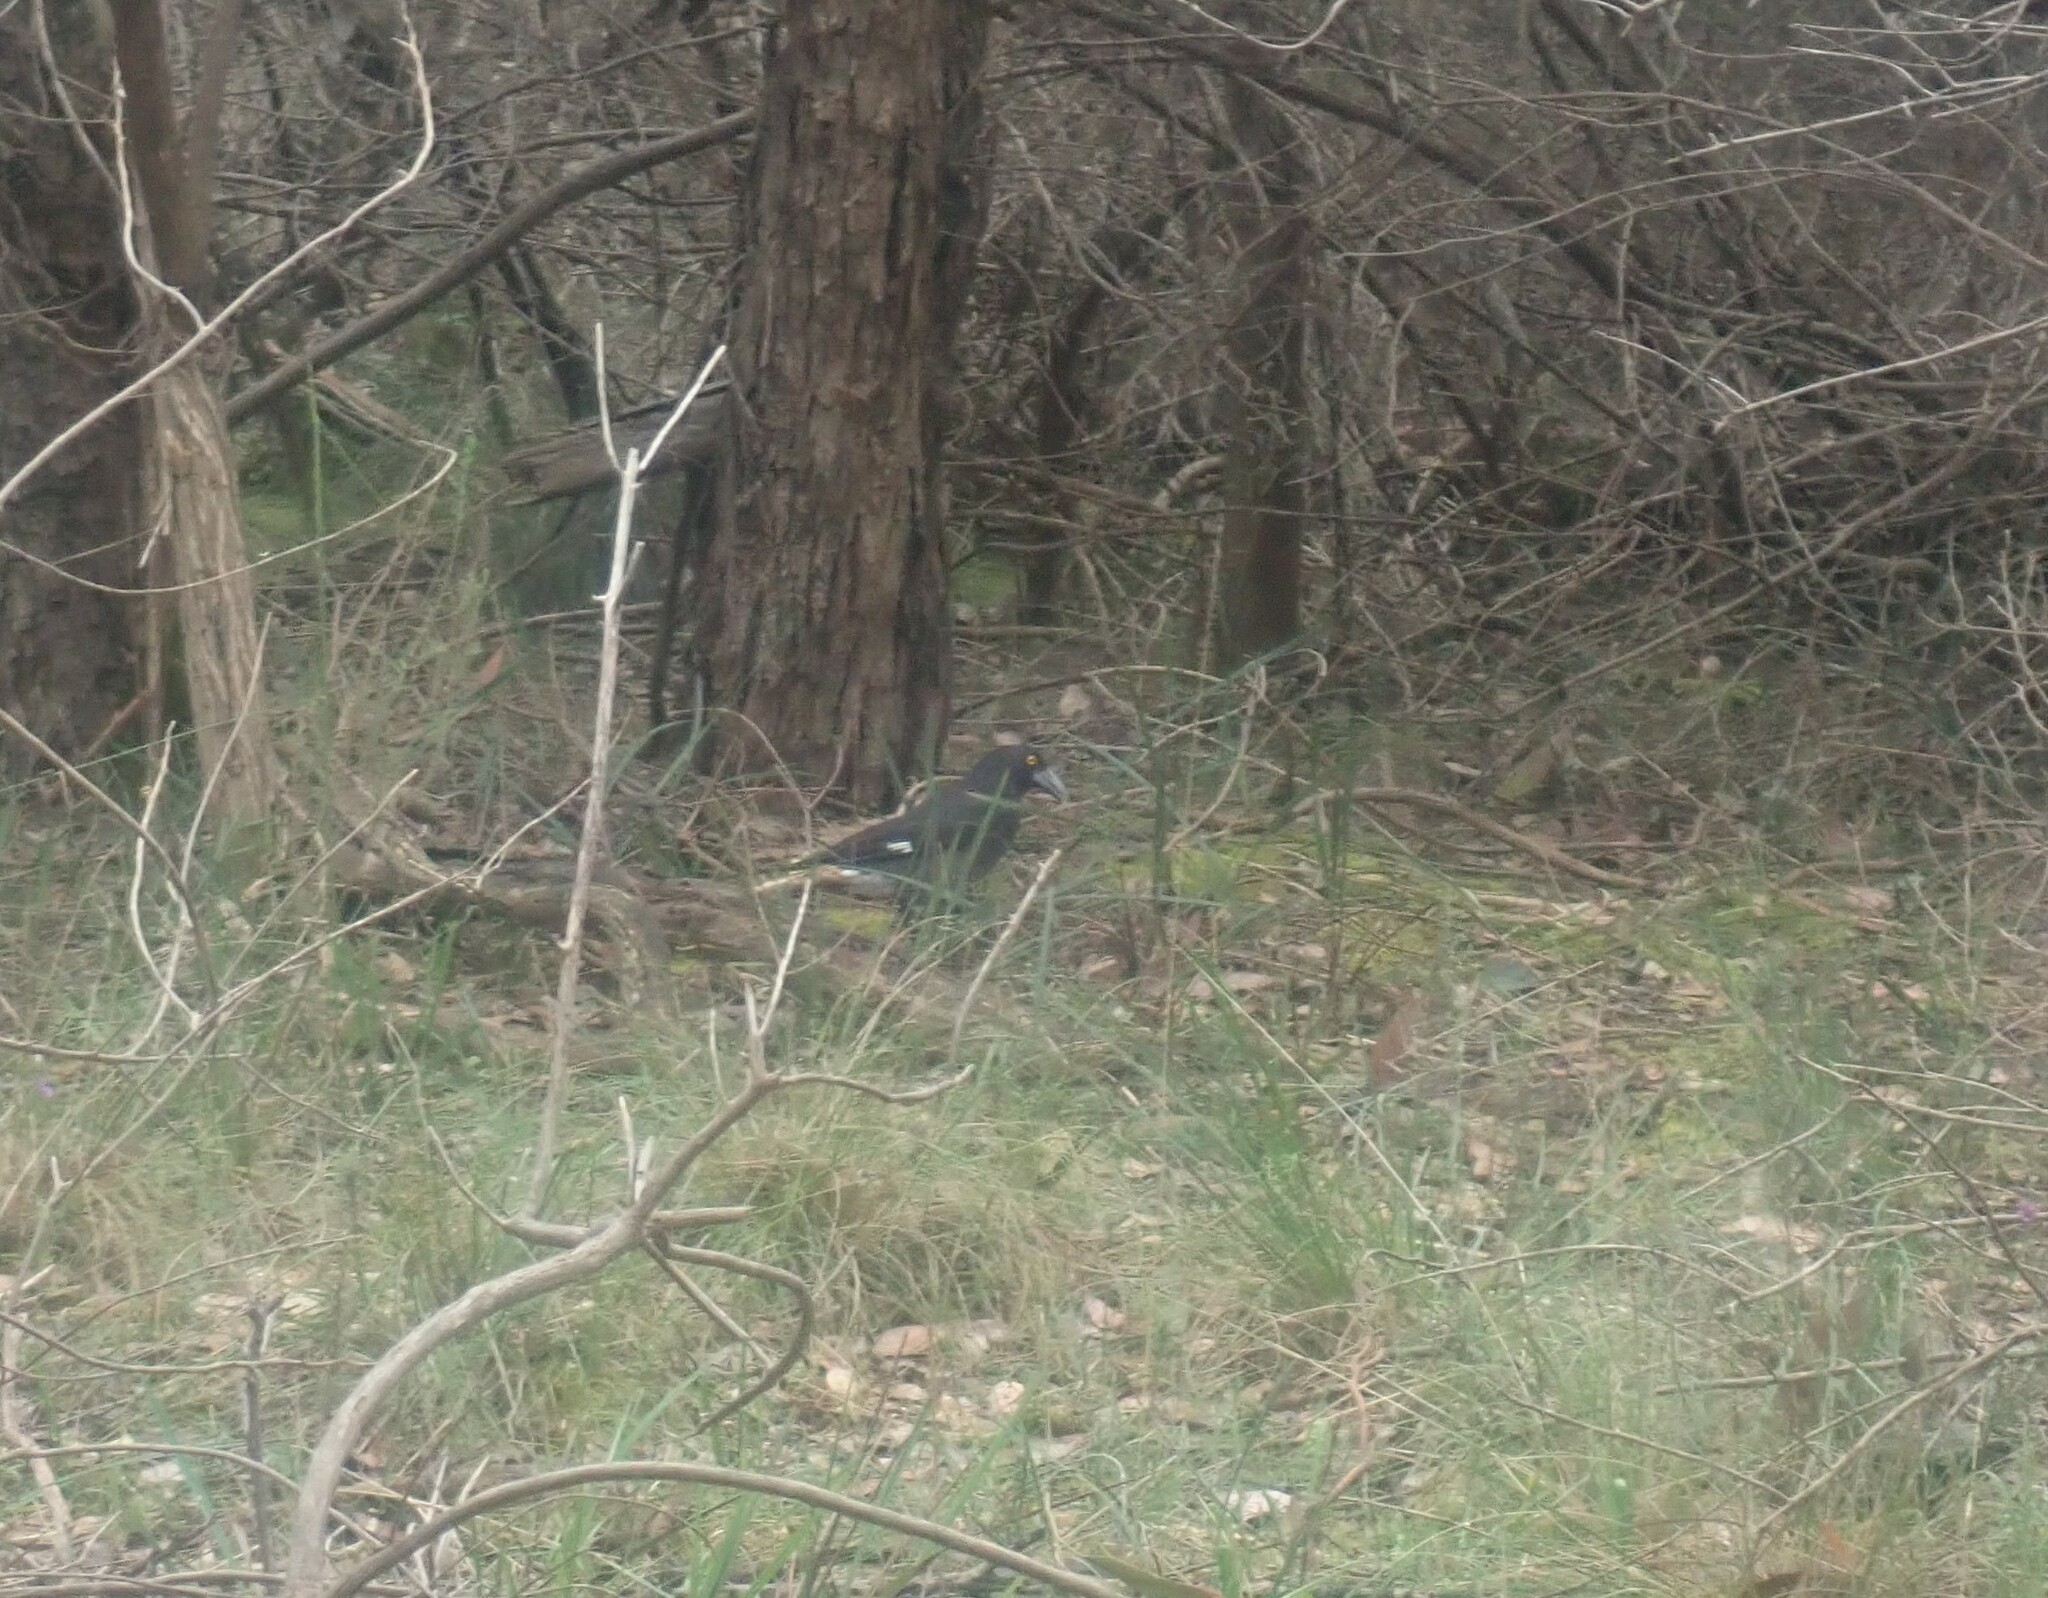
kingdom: Animalia
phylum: Chordata
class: Aves
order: Passeriformes
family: Cracticidae
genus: Strepera
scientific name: Strepera graculina
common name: Pied currawong
